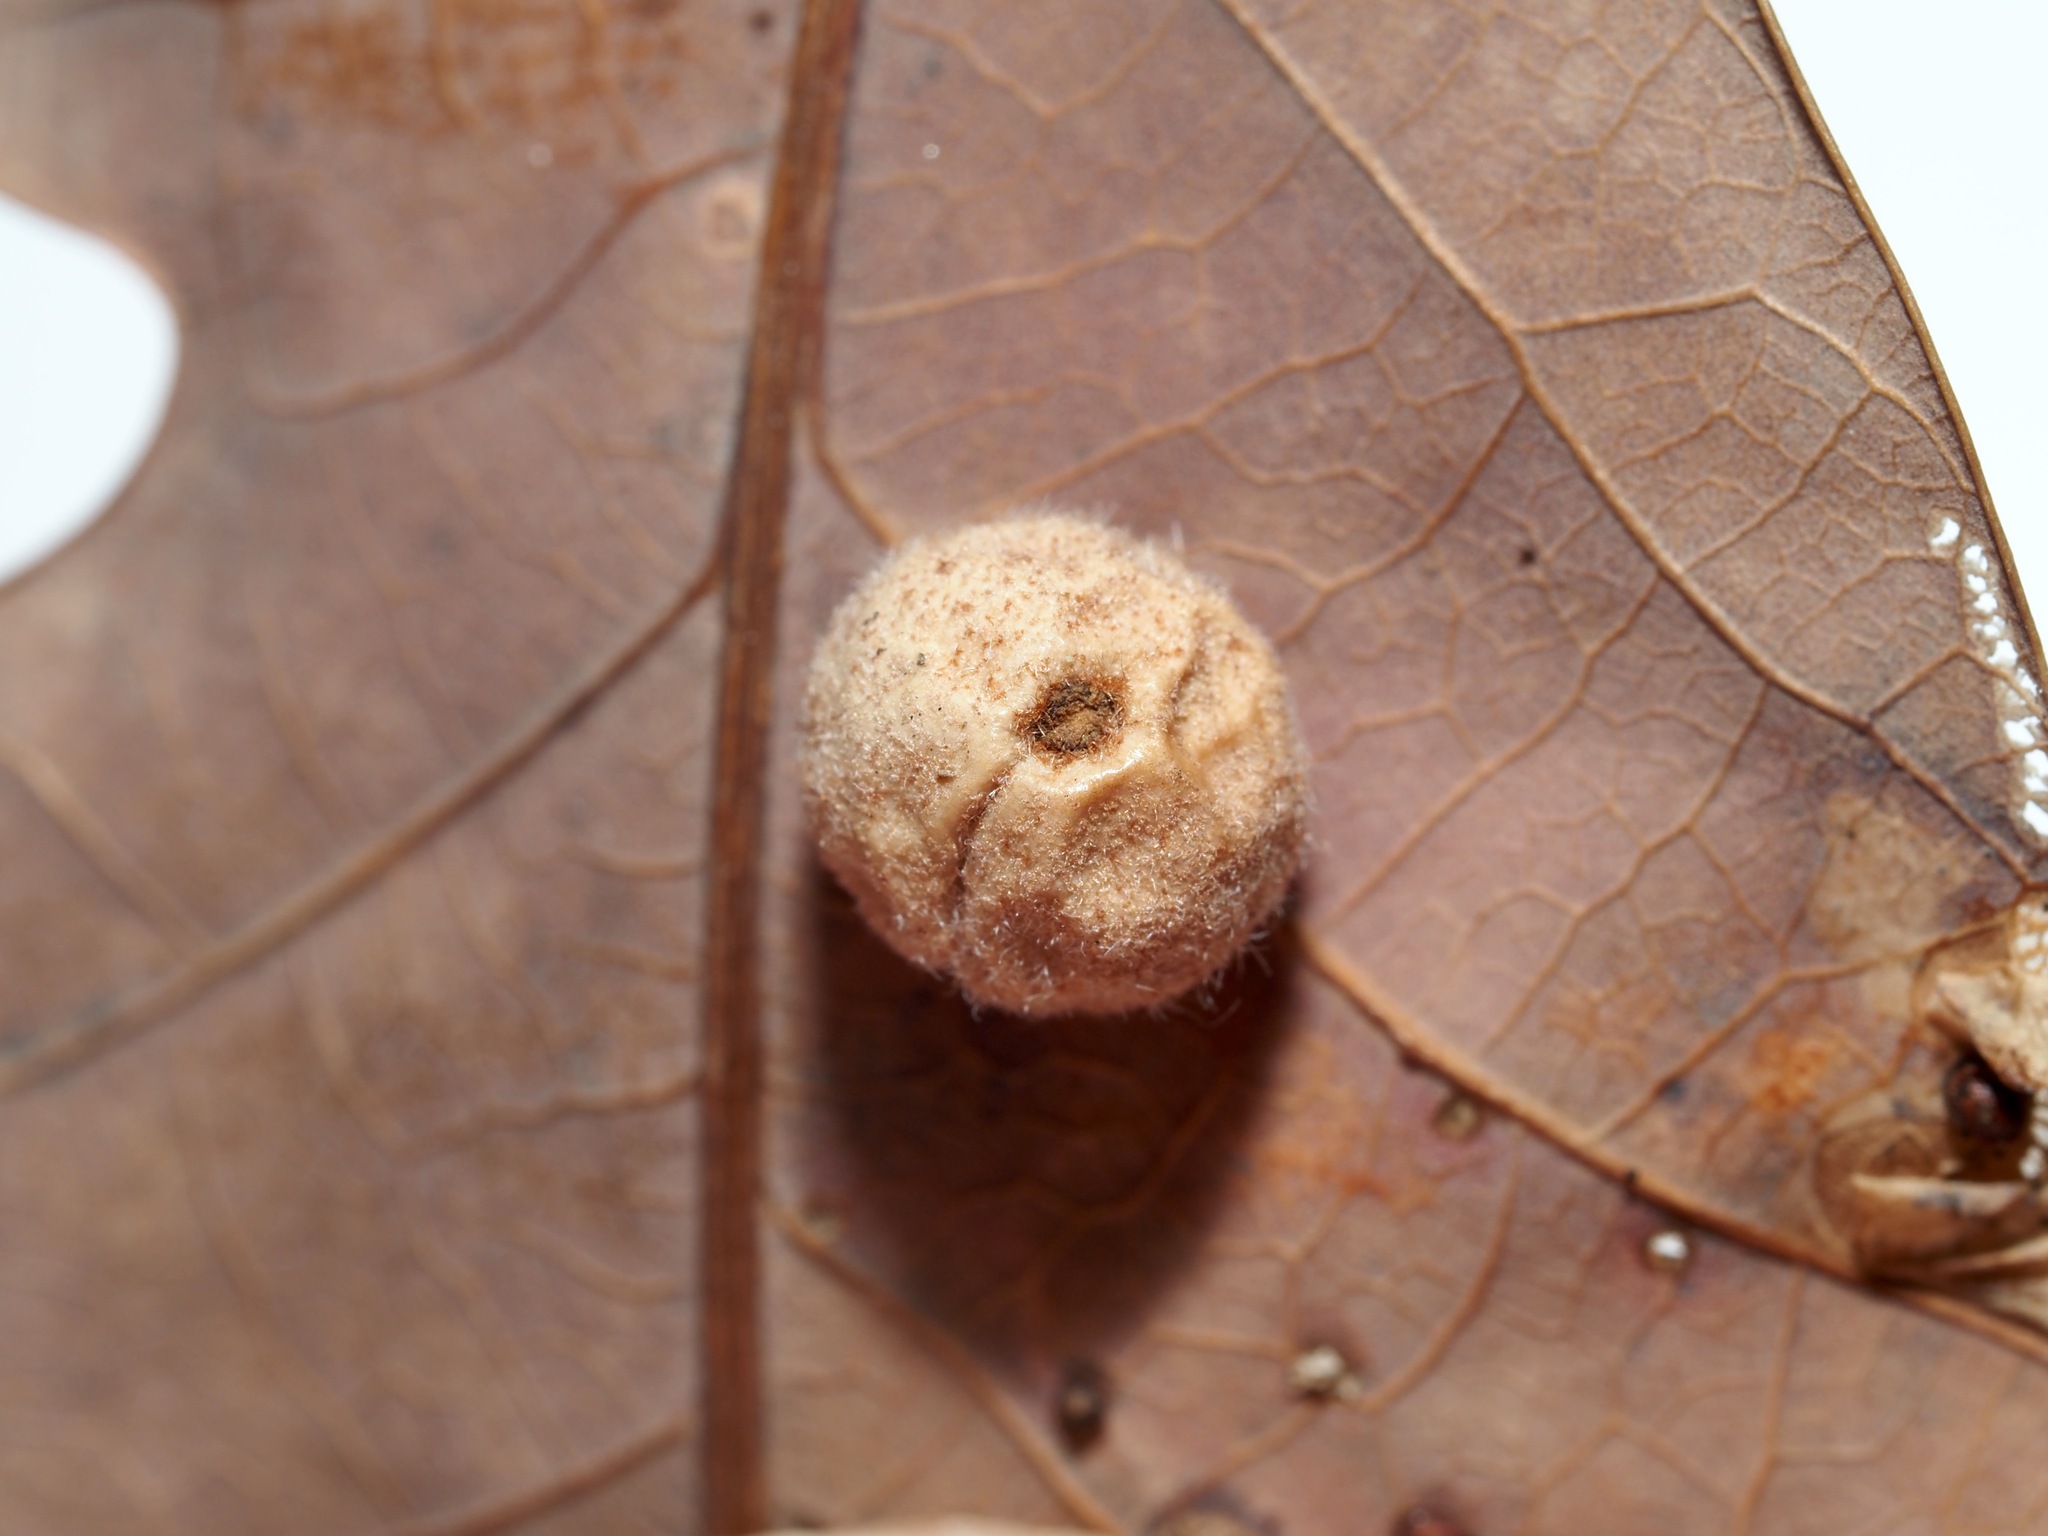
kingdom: Animalia
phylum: Arthropoda
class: Insecta
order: Hymenoptera
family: Cynipidae
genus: Philonix
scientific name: Philonix fulvicollis
